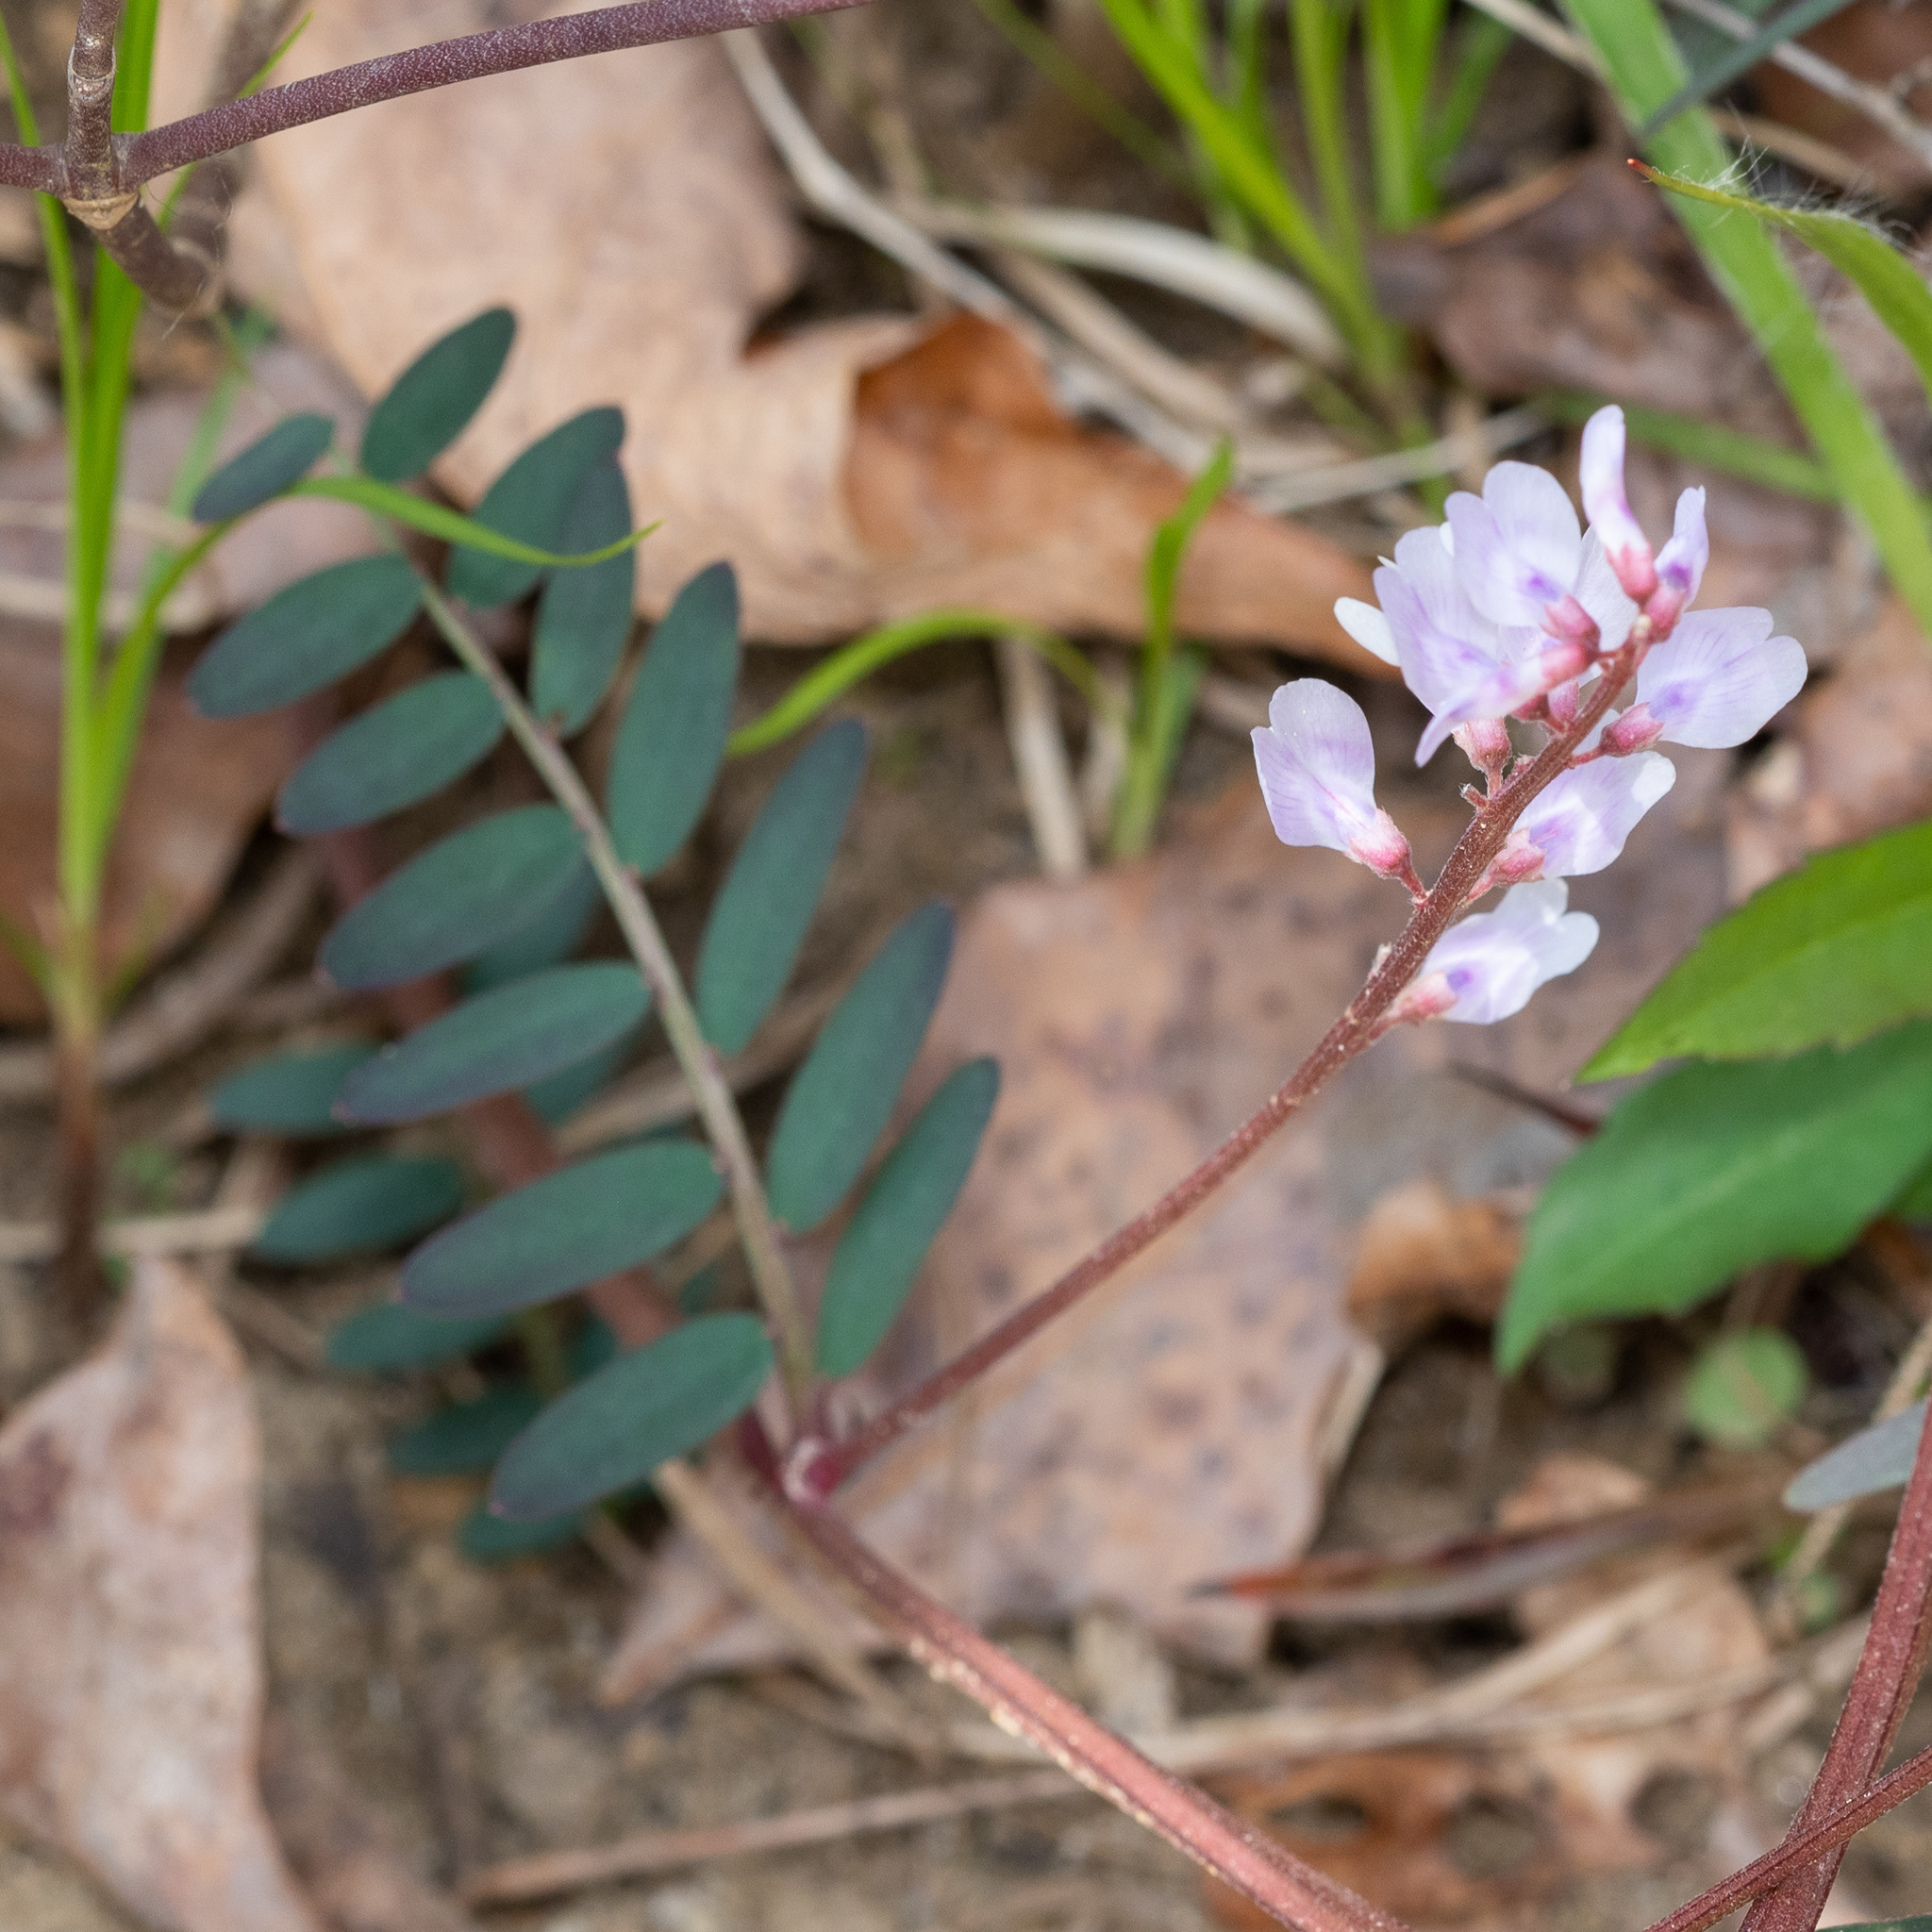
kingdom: Plantae
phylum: Tracheophyta
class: Magnoliopsida
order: Fabales
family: Fabaceae
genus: Vicia
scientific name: Vicia caroliniana
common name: Carolina vetch
